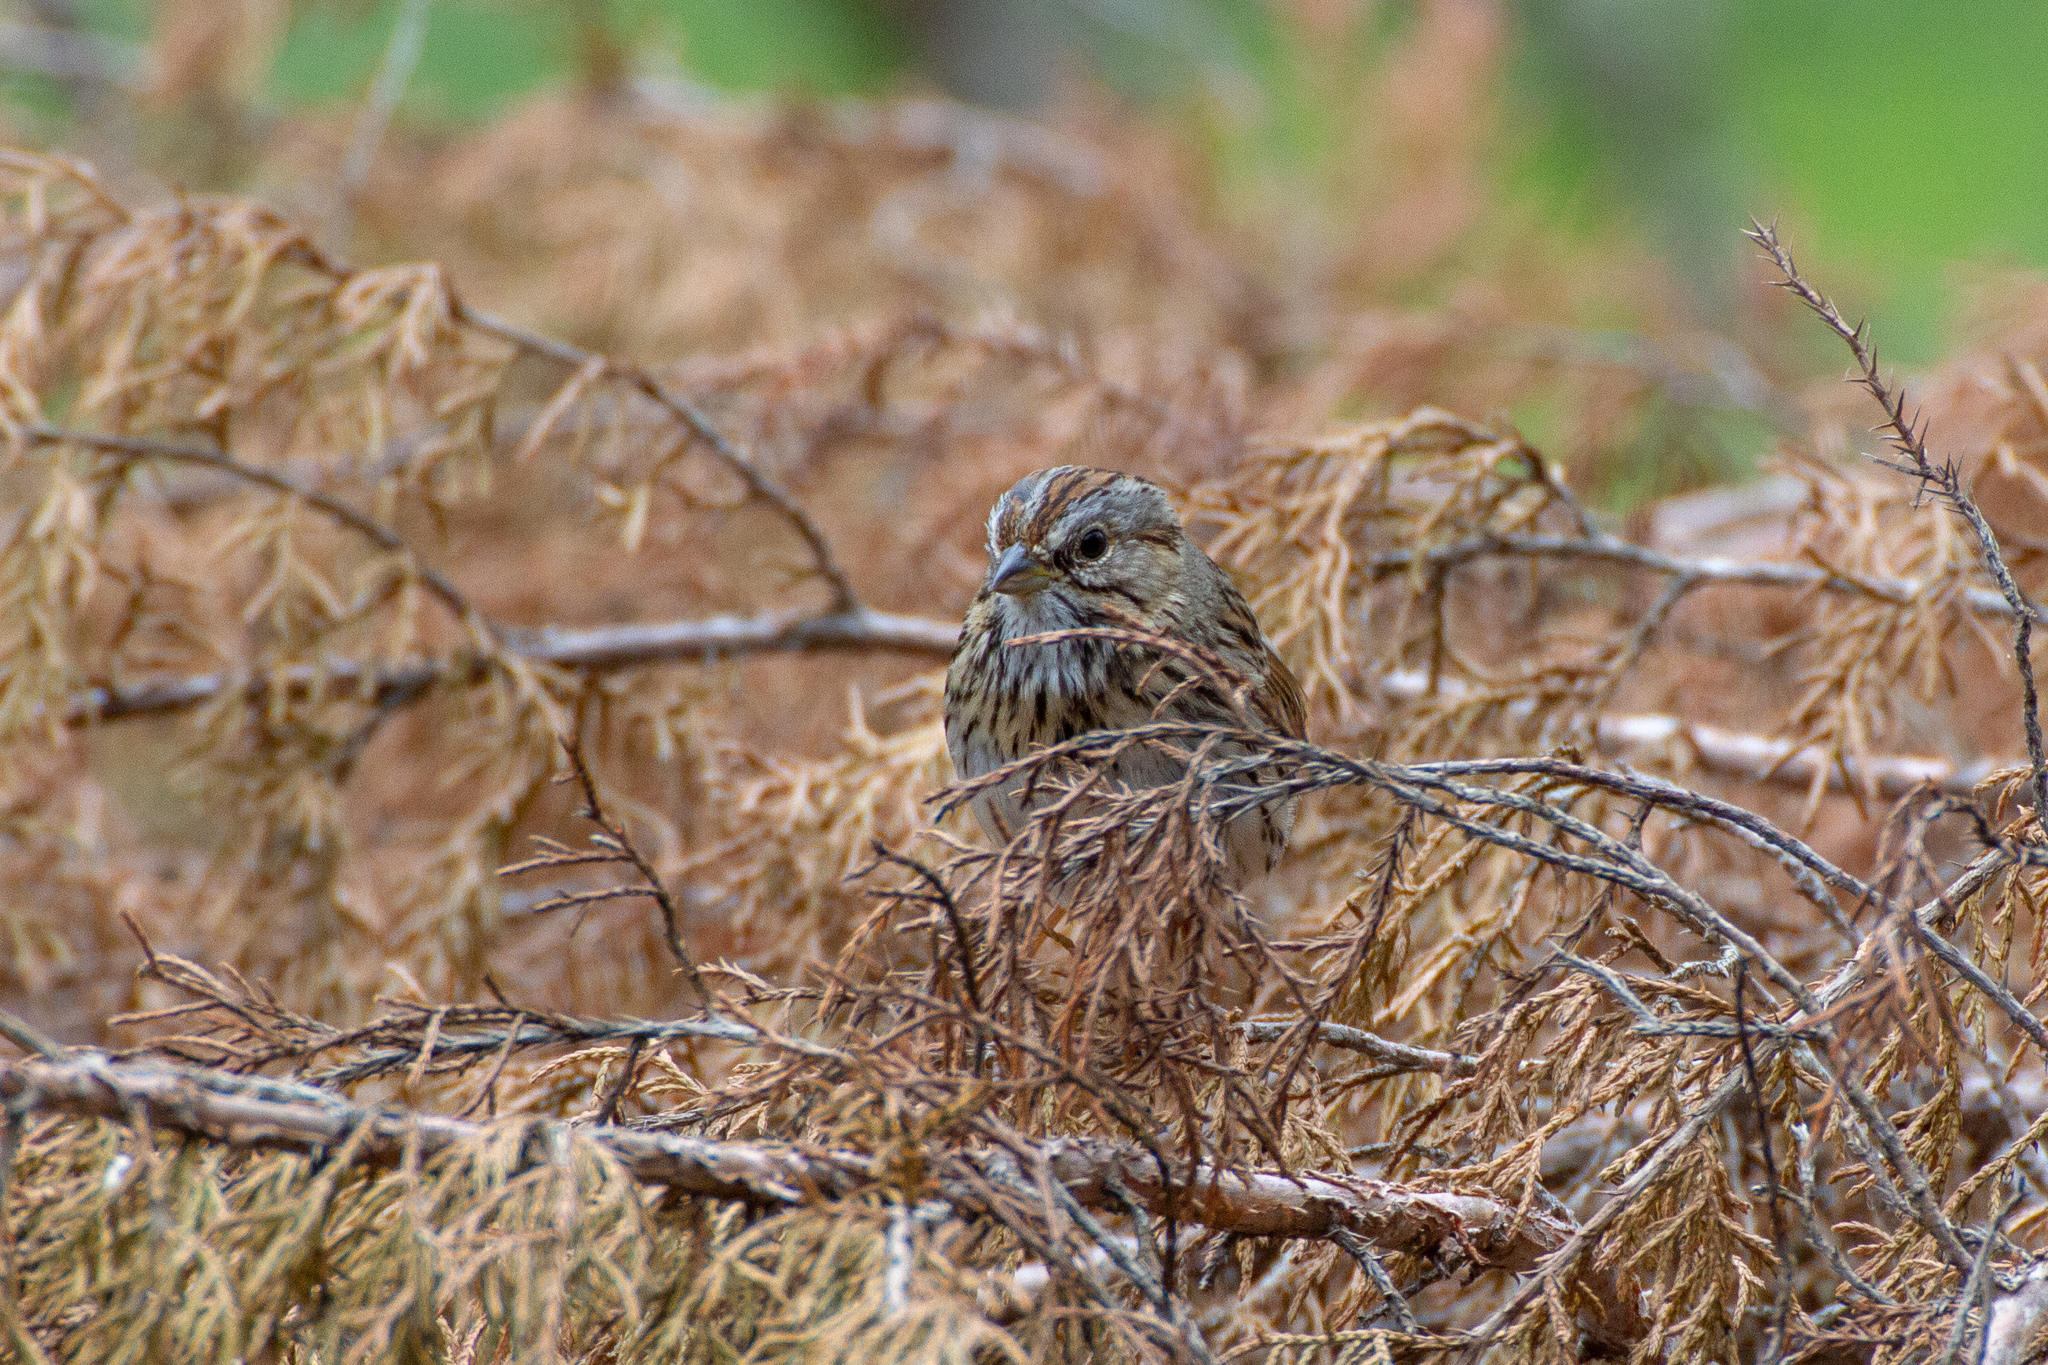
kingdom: Animalia
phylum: Chordata
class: Aves
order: Passeriformes
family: Passerellidae
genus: Melospiza
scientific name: Melospiza lincolnii
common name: Lincoln's sparrow
